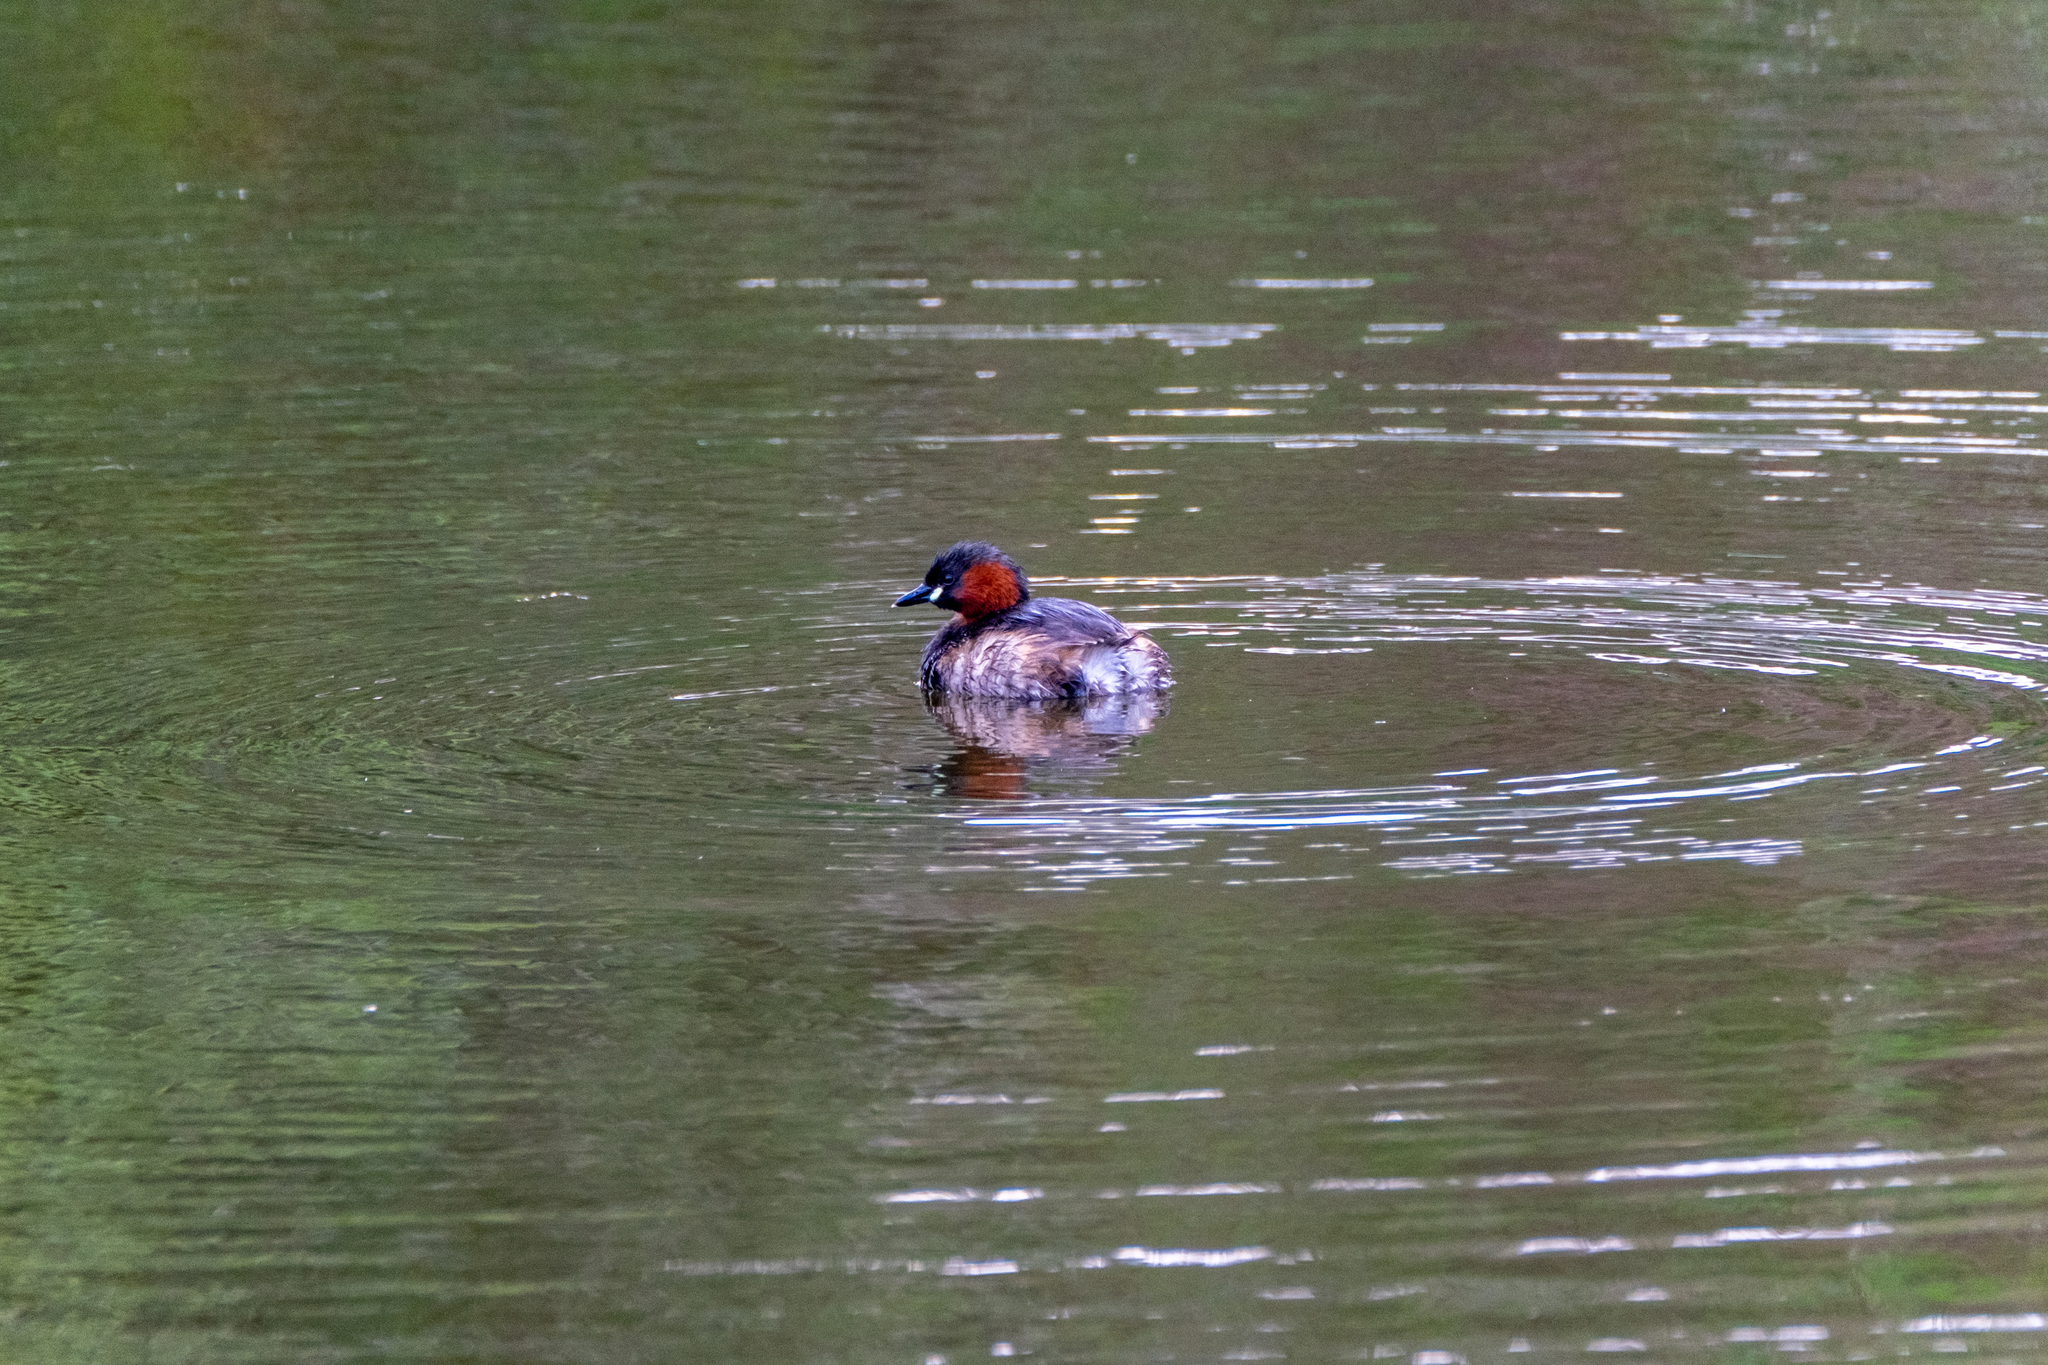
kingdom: Animalia
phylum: Chordata
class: Aves
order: Podicipediformes
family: Podicipedidae
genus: Tachybaptus
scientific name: Tachybaptus ruficollis
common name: Little grebe
